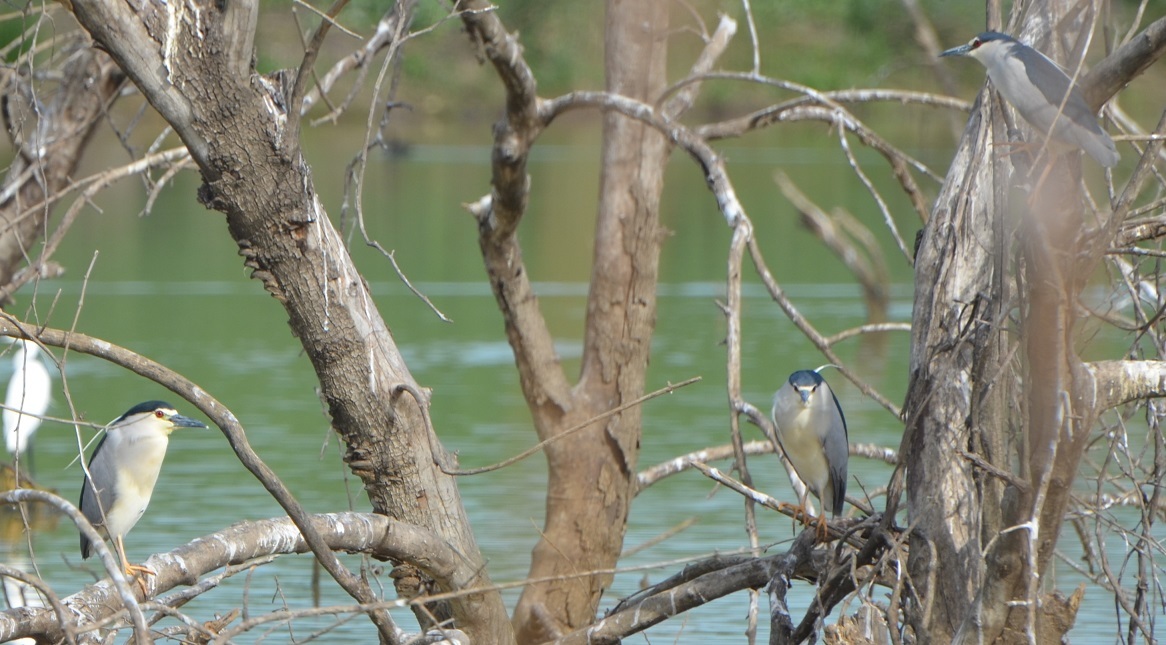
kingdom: Animalia
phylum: Chordata
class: Aves
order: Pelecaniformes
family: Ardeidae
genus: Nycticorax
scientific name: Nycticorax nycticorax
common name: Black-crowned night heron
